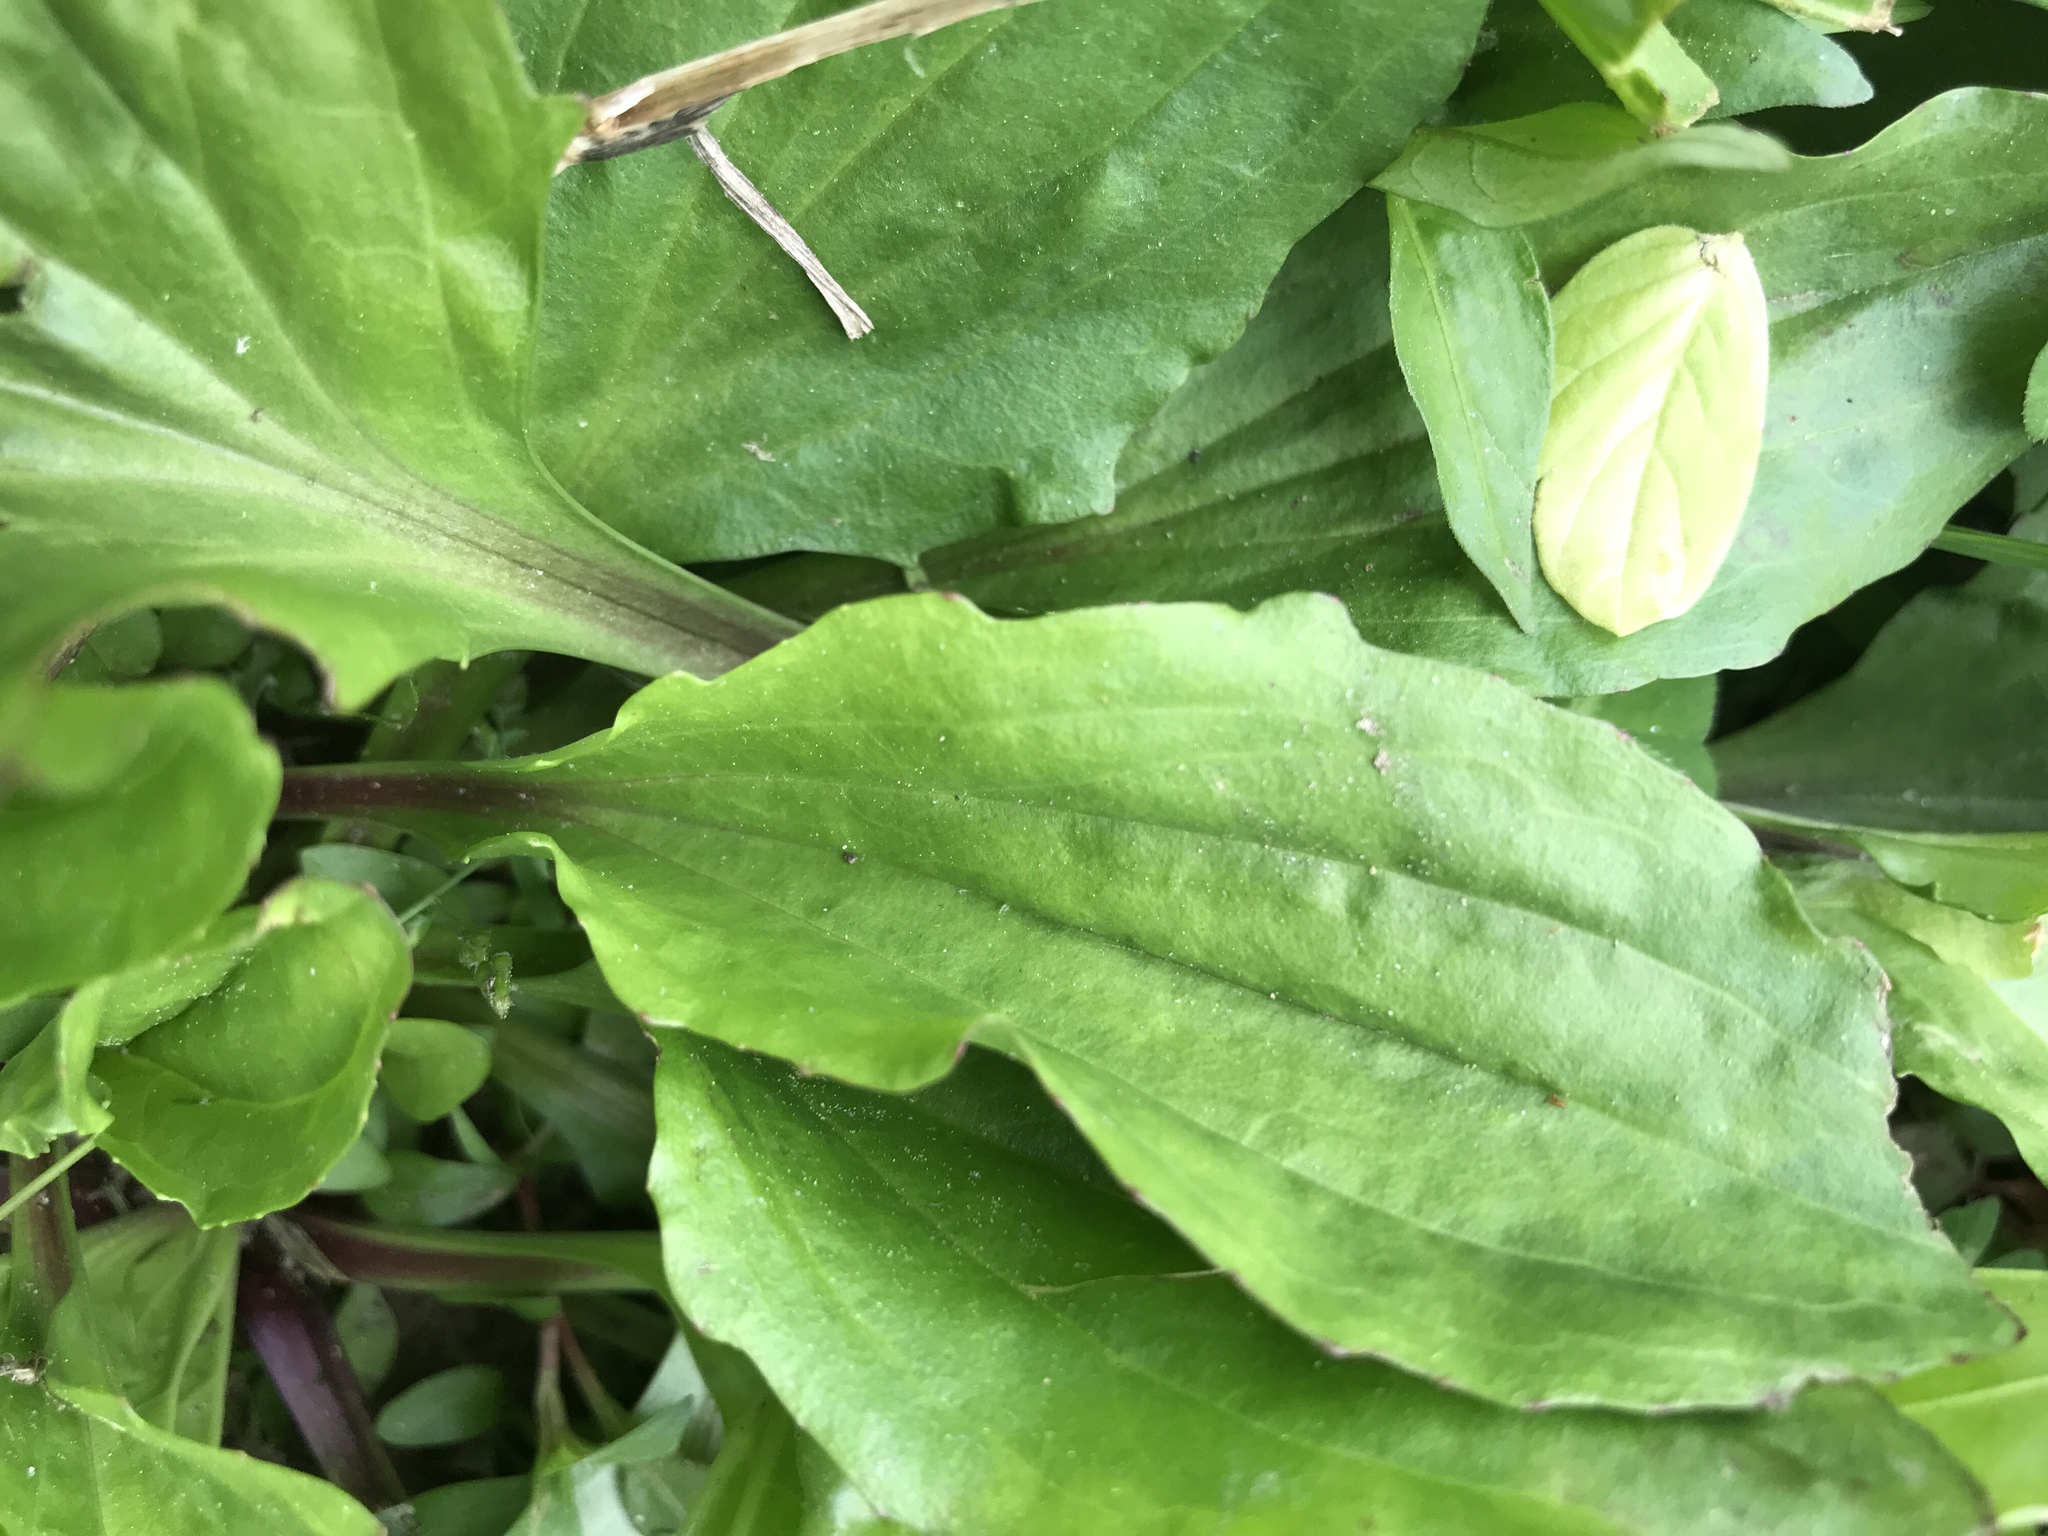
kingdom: Plantae
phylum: Tracheophyta
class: Magnoliopsida
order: Lamiales
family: Plantaginaceae
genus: Plantago
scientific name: Plantago major
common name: Common plantain
